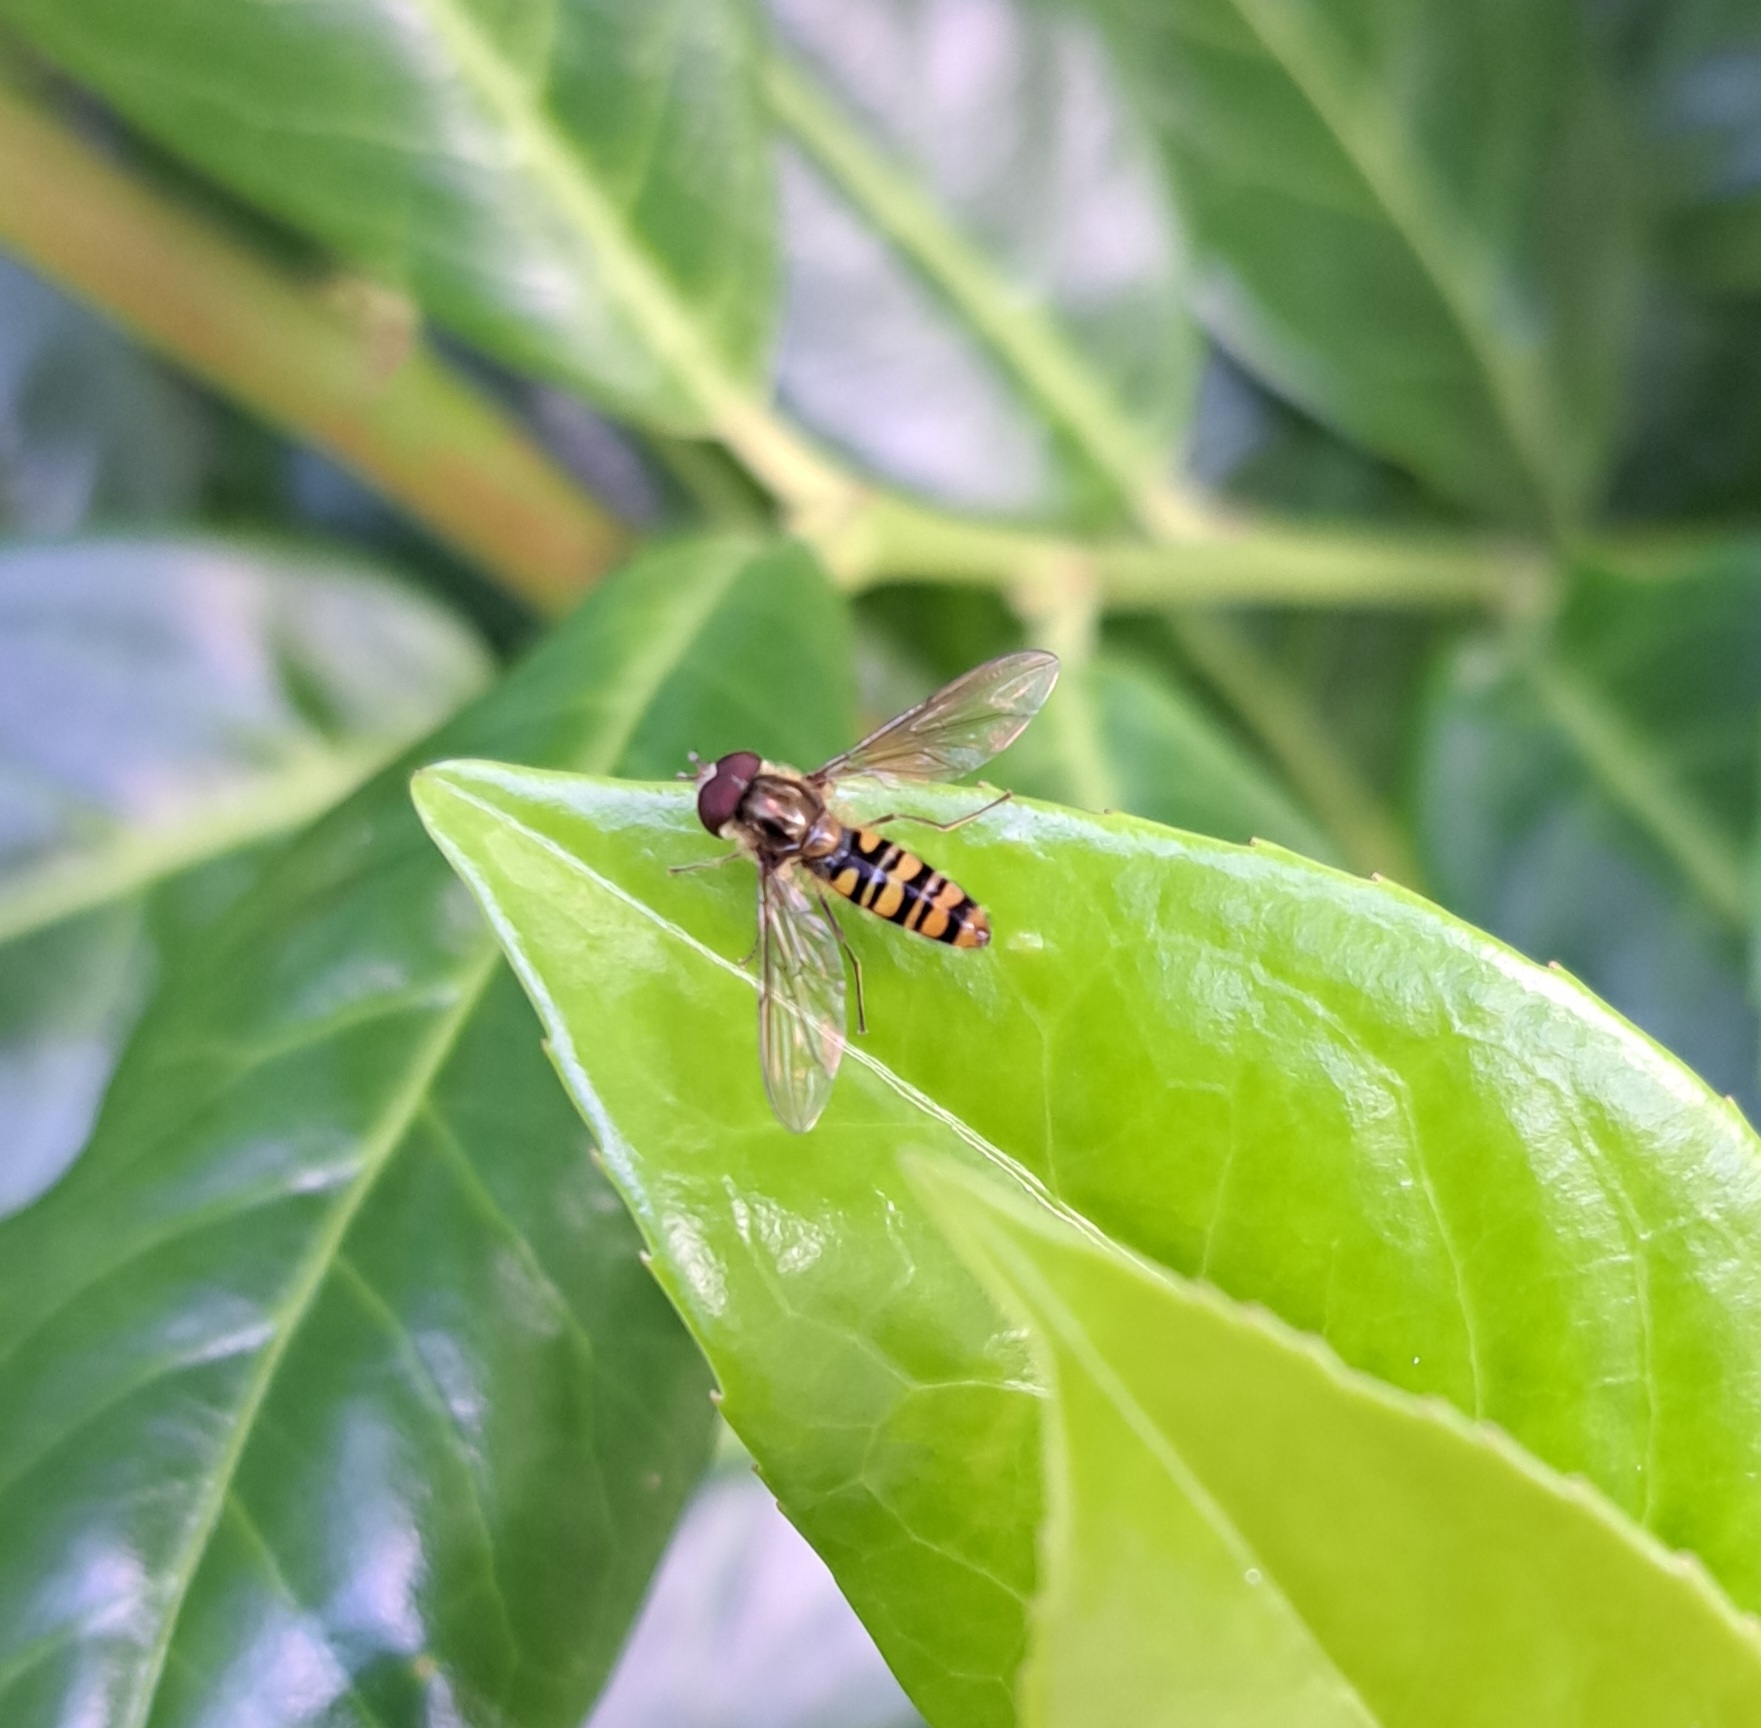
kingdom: Animalia
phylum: Arthropoda
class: Insecta
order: Diptera
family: Syrphidae
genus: Episyrphus
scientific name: Episyrphus balteatus
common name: Marmalade hoverfly
